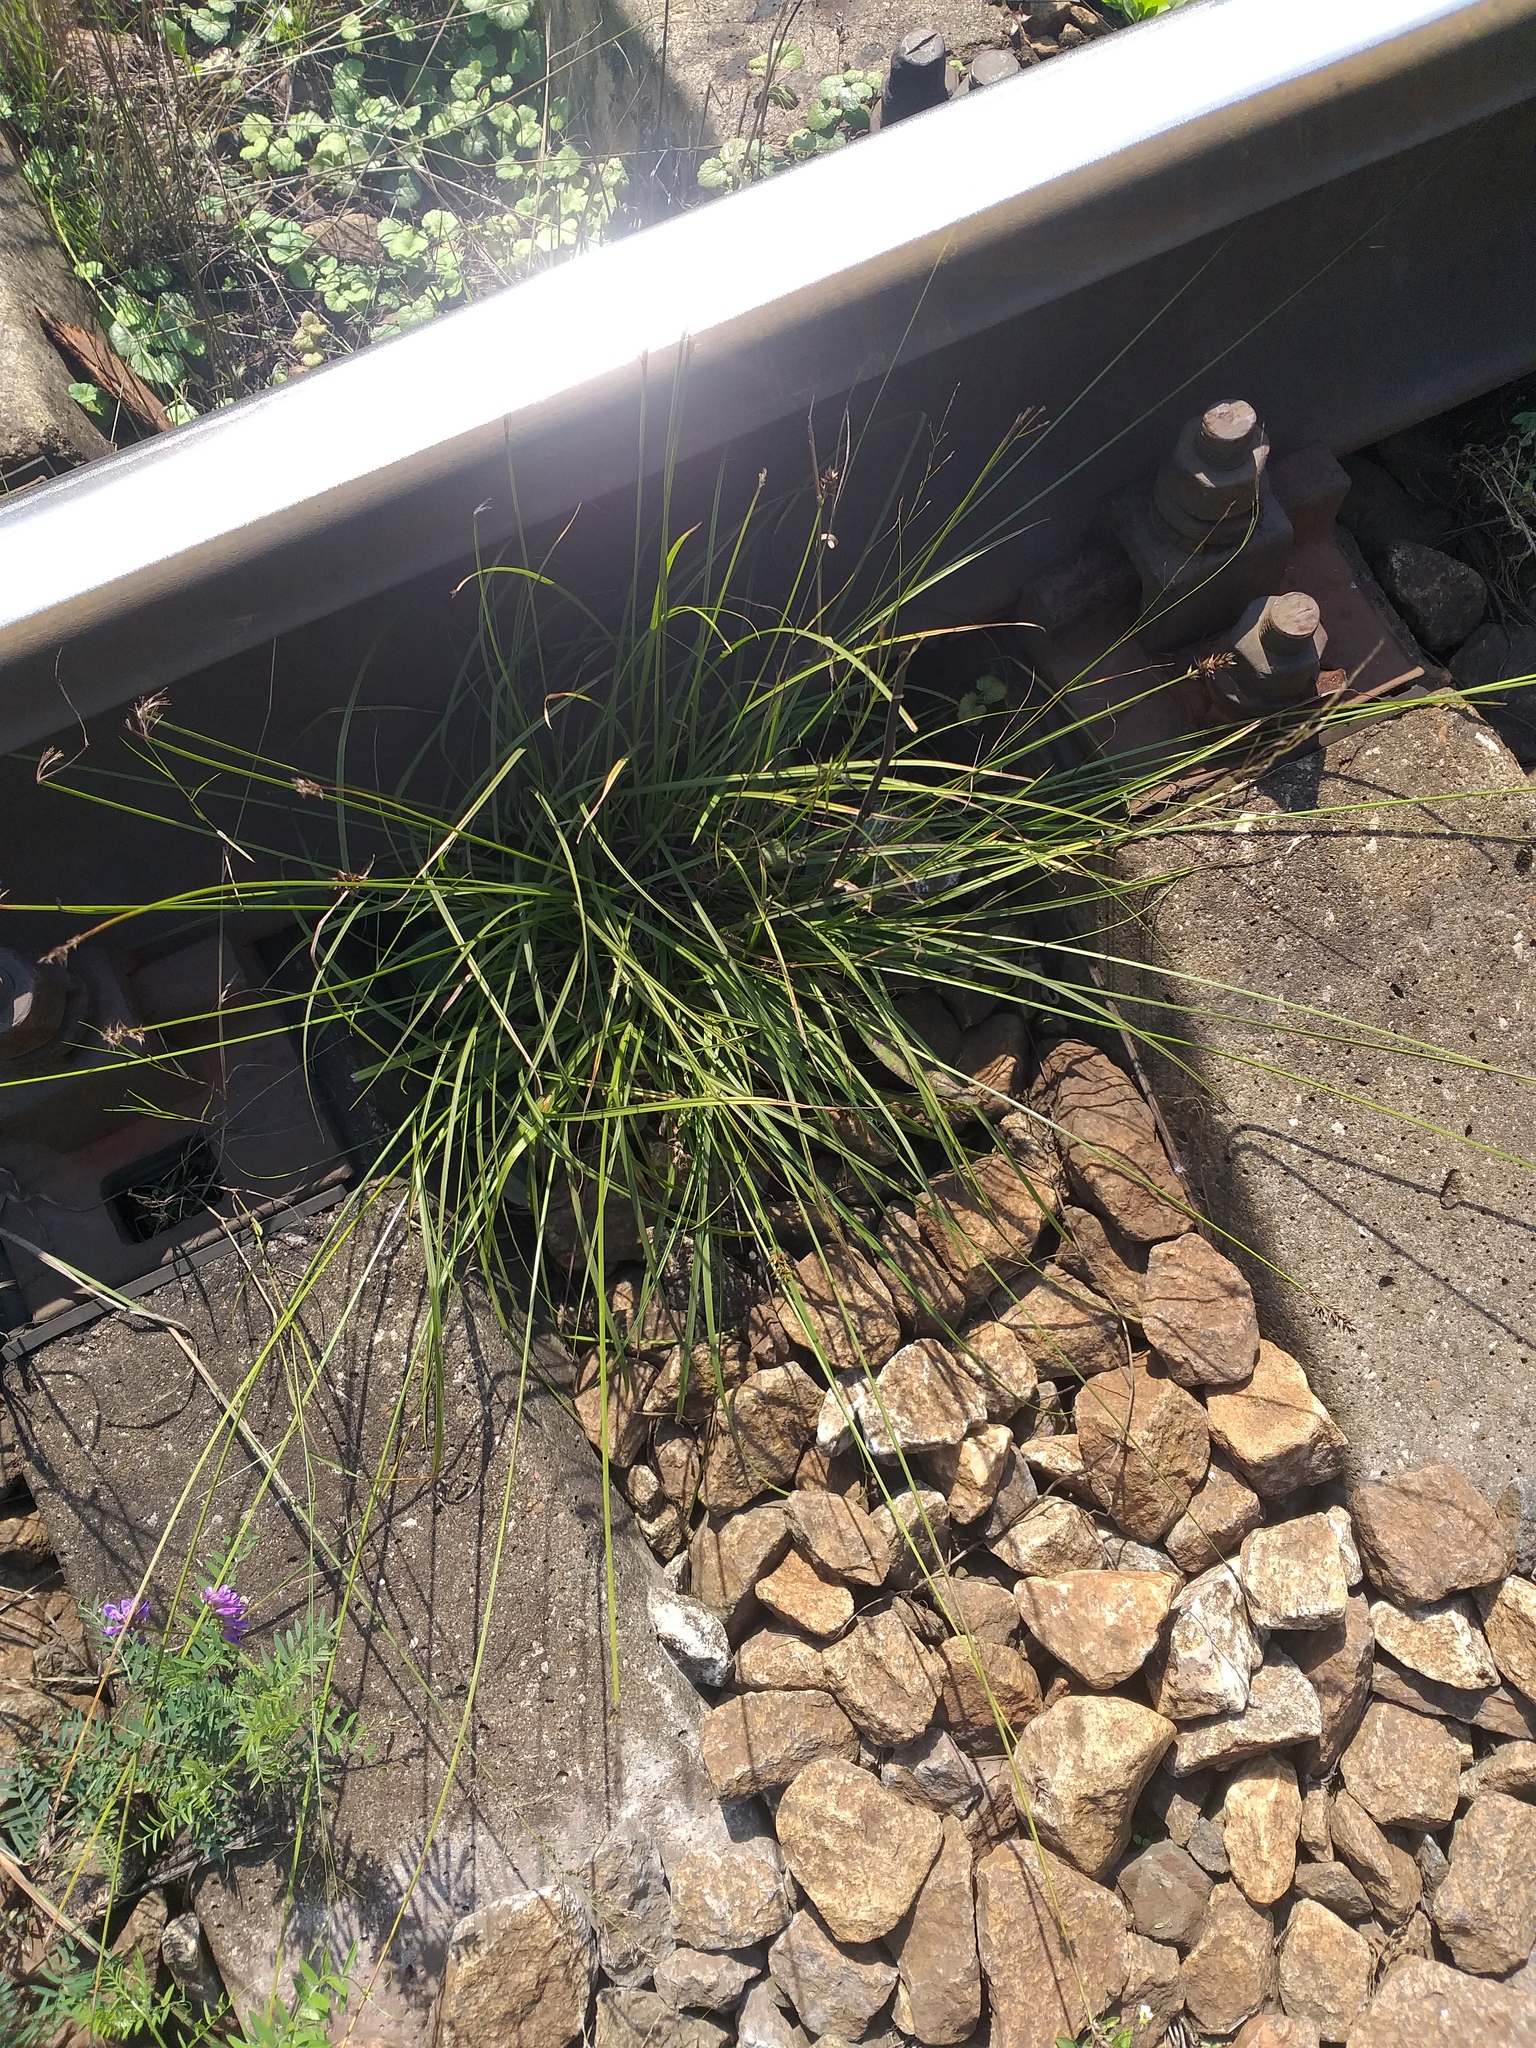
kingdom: Plantae
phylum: Tracheophyta
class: Liliopsida
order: Poales
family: Cyperaceae
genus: Carex
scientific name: Carex spicata
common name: Spiked sedge
